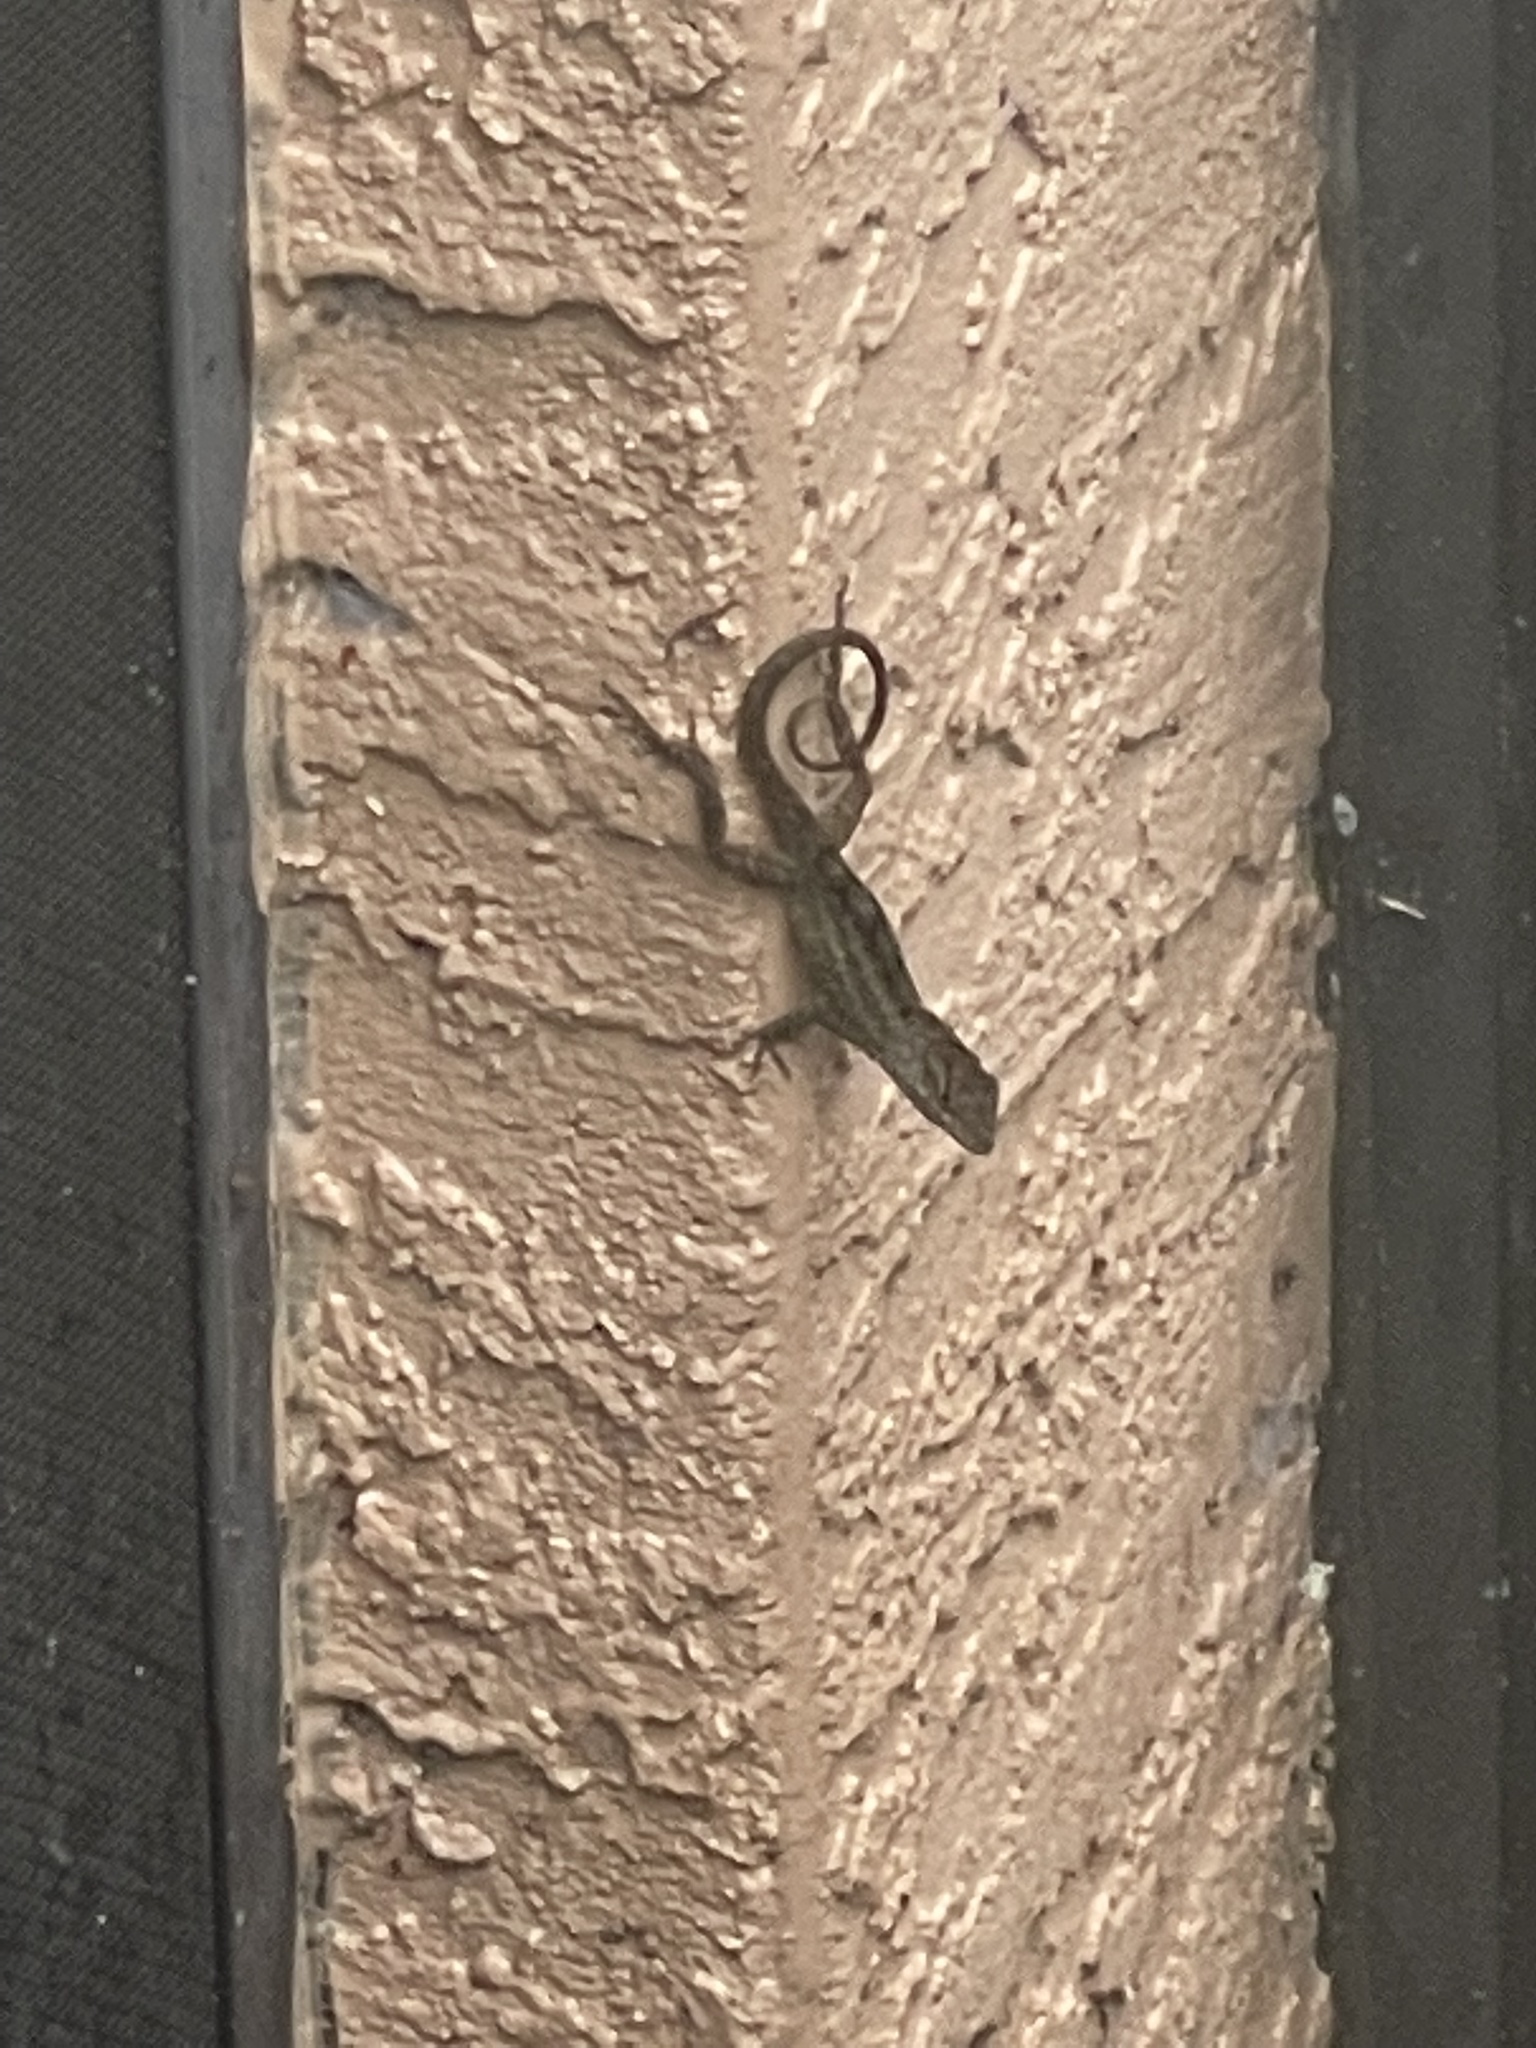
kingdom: Animalia
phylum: Chordata
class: Squamata
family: Dactyloidae
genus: Anolis
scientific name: Anolis sagrei
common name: Brown anole
